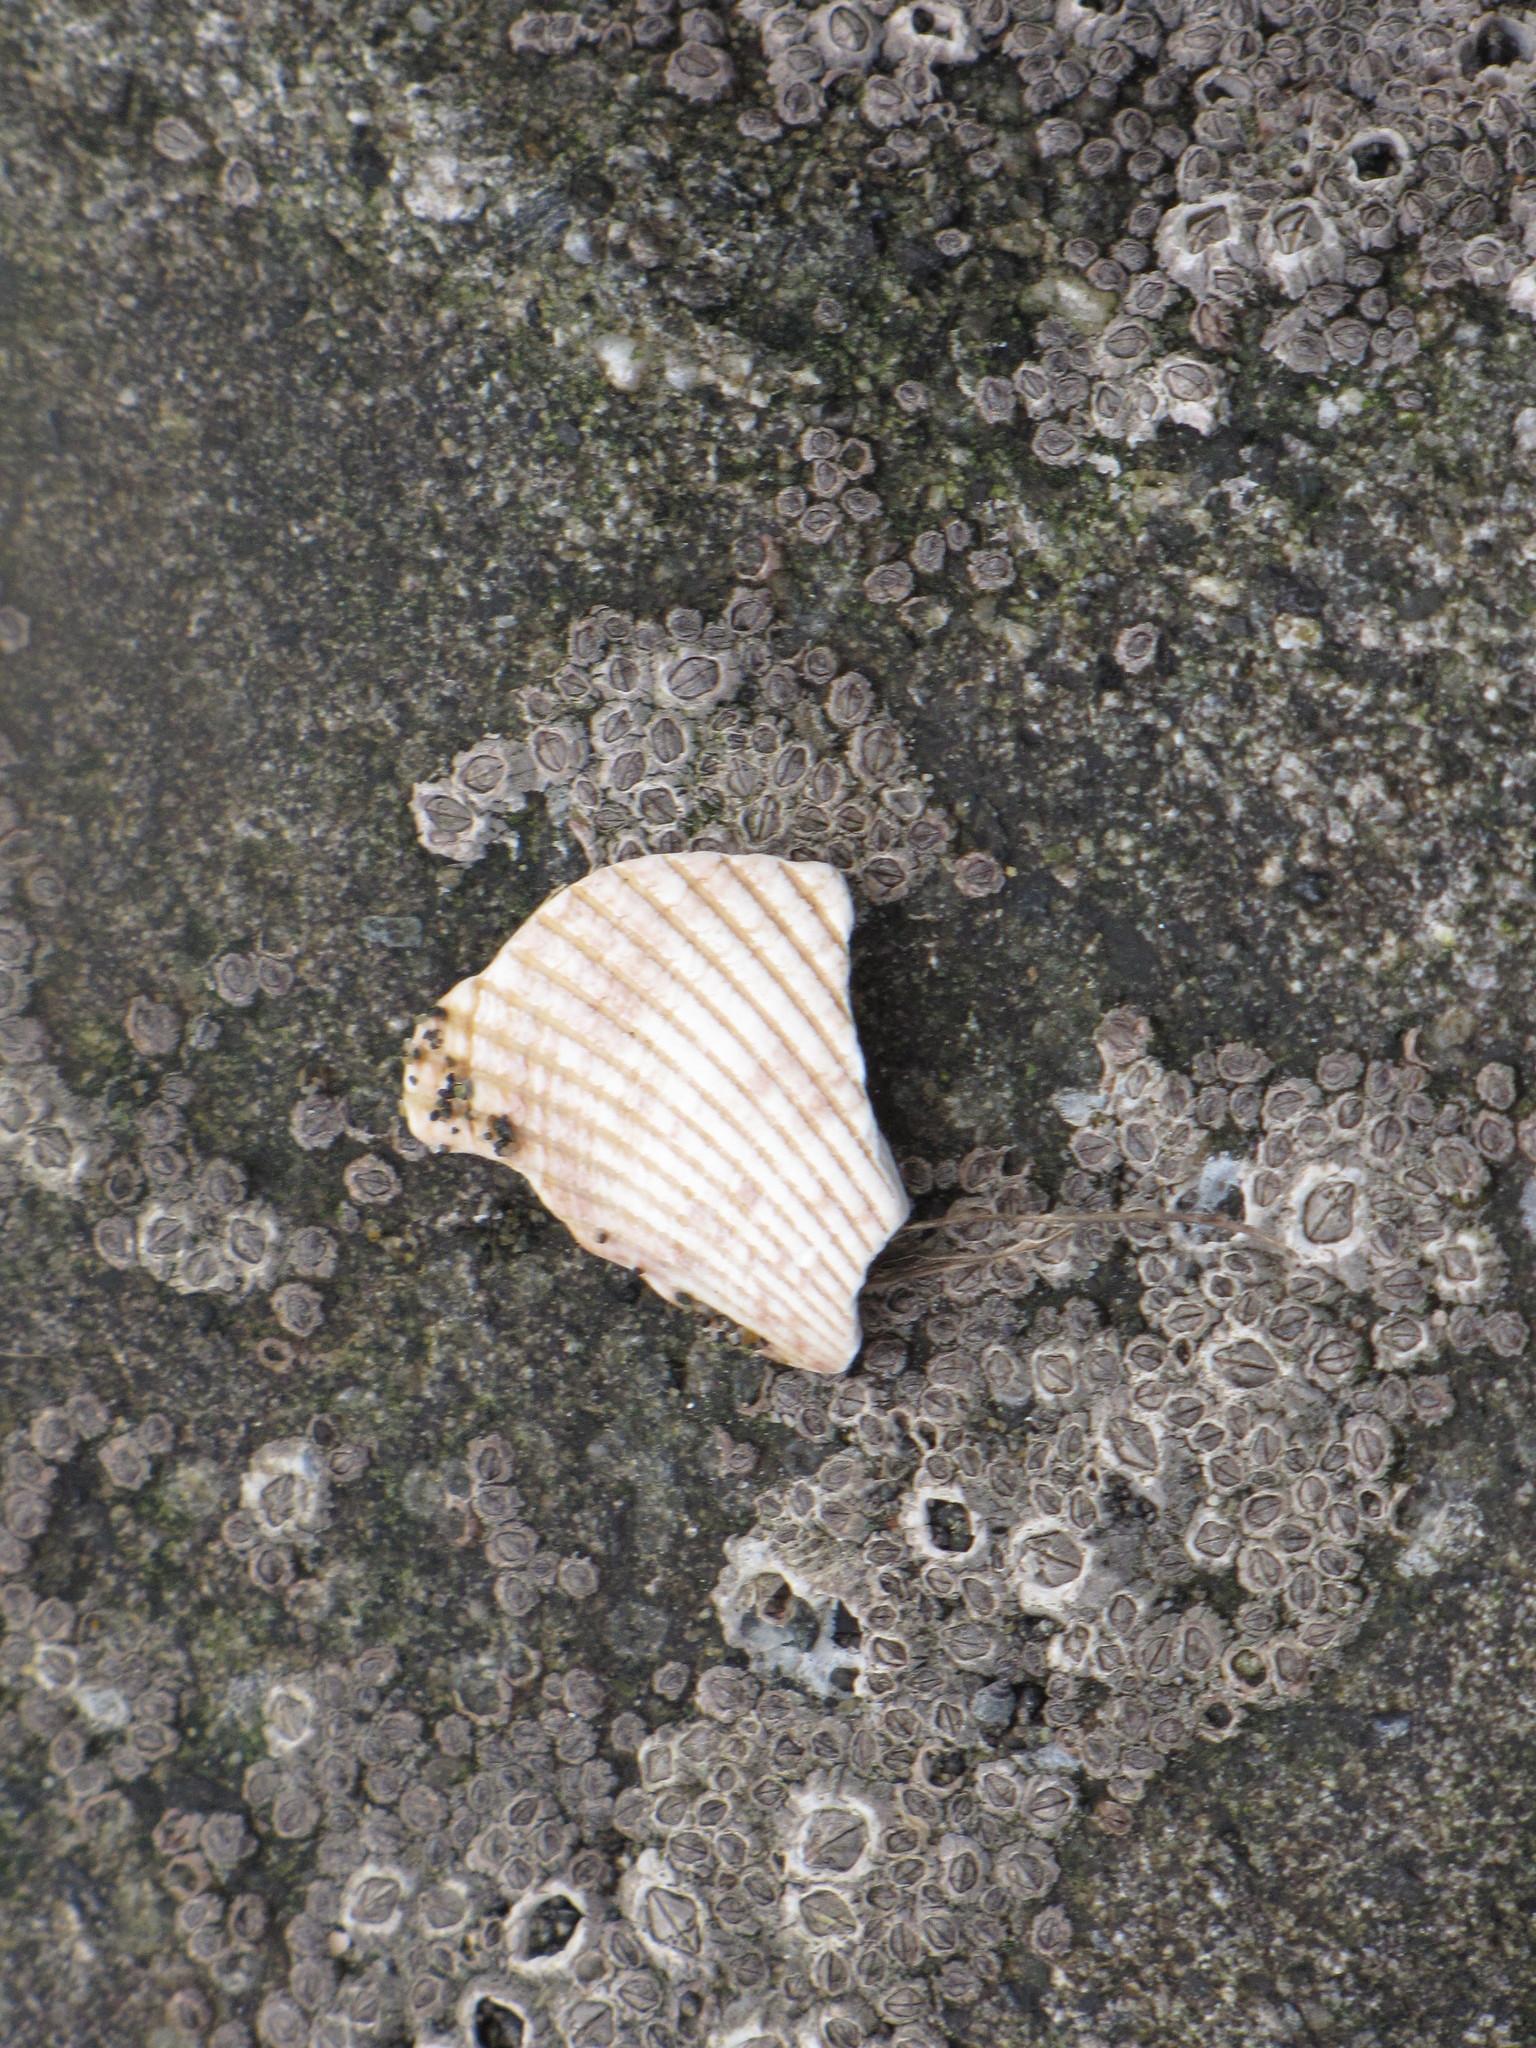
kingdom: Animalia
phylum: Mollusca
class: Bivalvia
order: Cardiida
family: Cardiidae
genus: Clinocardium
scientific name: Clinocardium nuttallii
